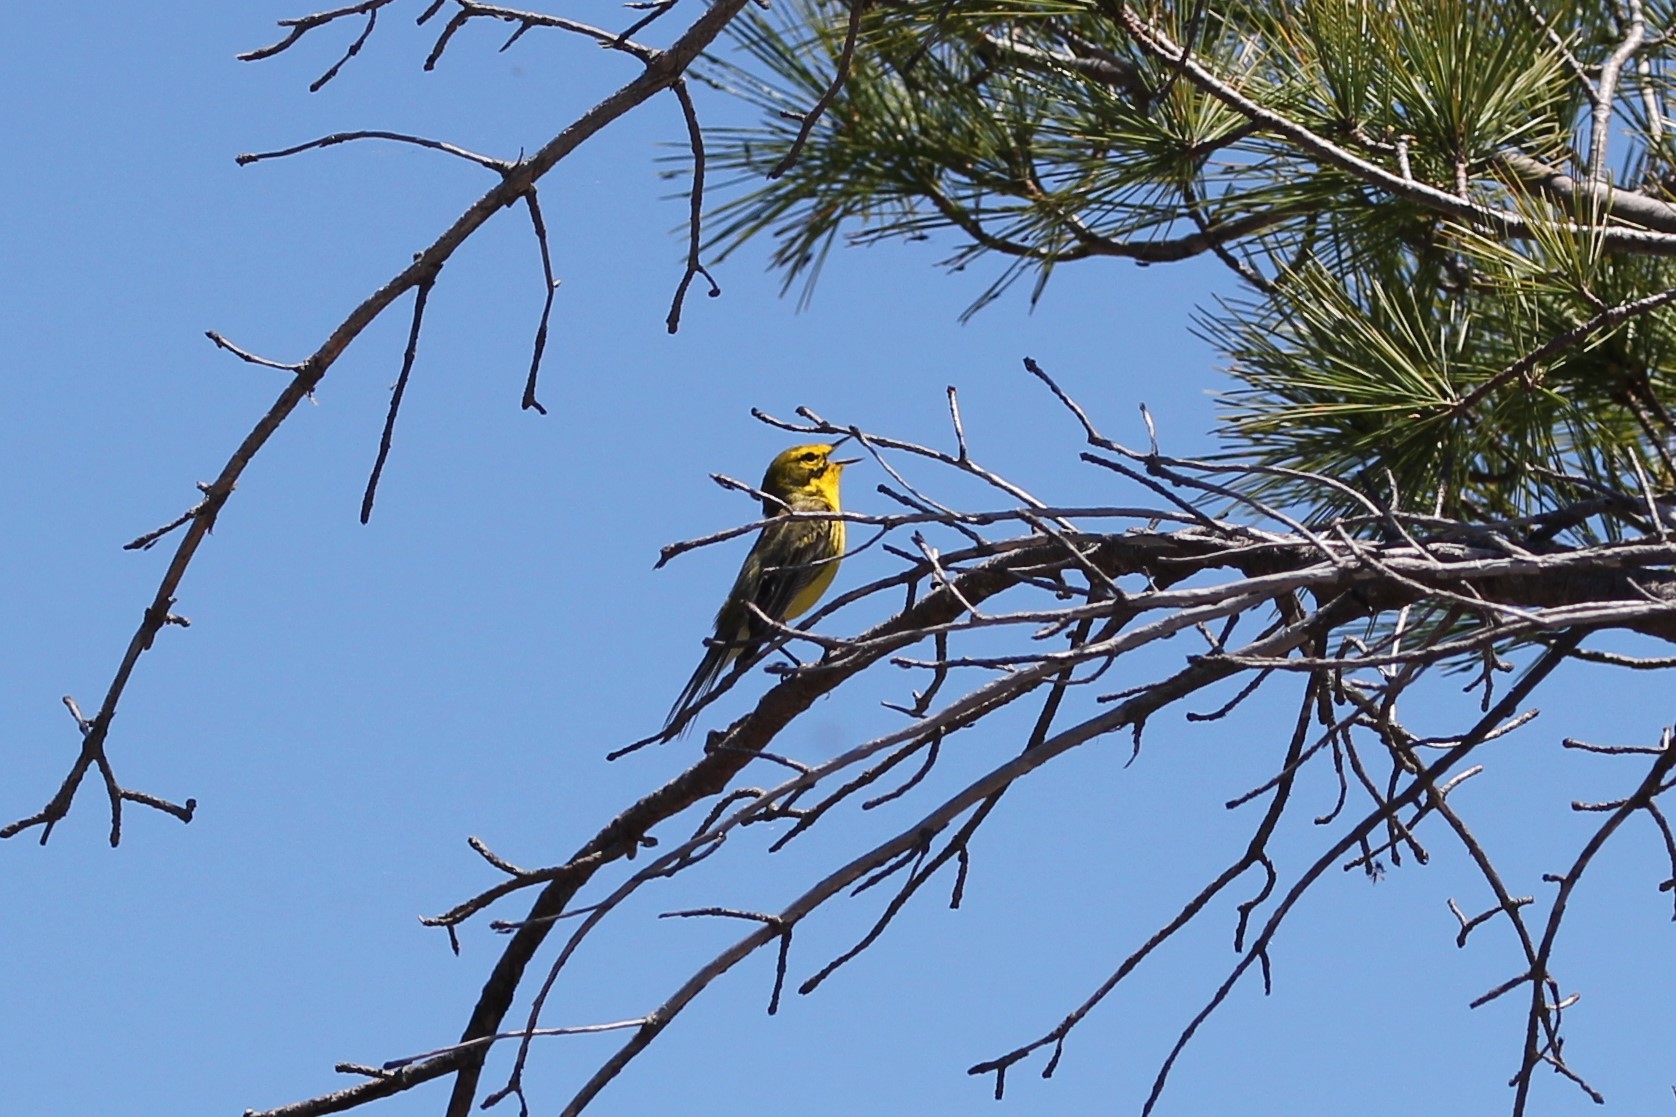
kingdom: Animalia
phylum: Chordata
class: Aves
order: Passeriformes
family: Parulidae
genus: Setophaga
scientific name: Setophaga discolor
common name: Prairie warbler
